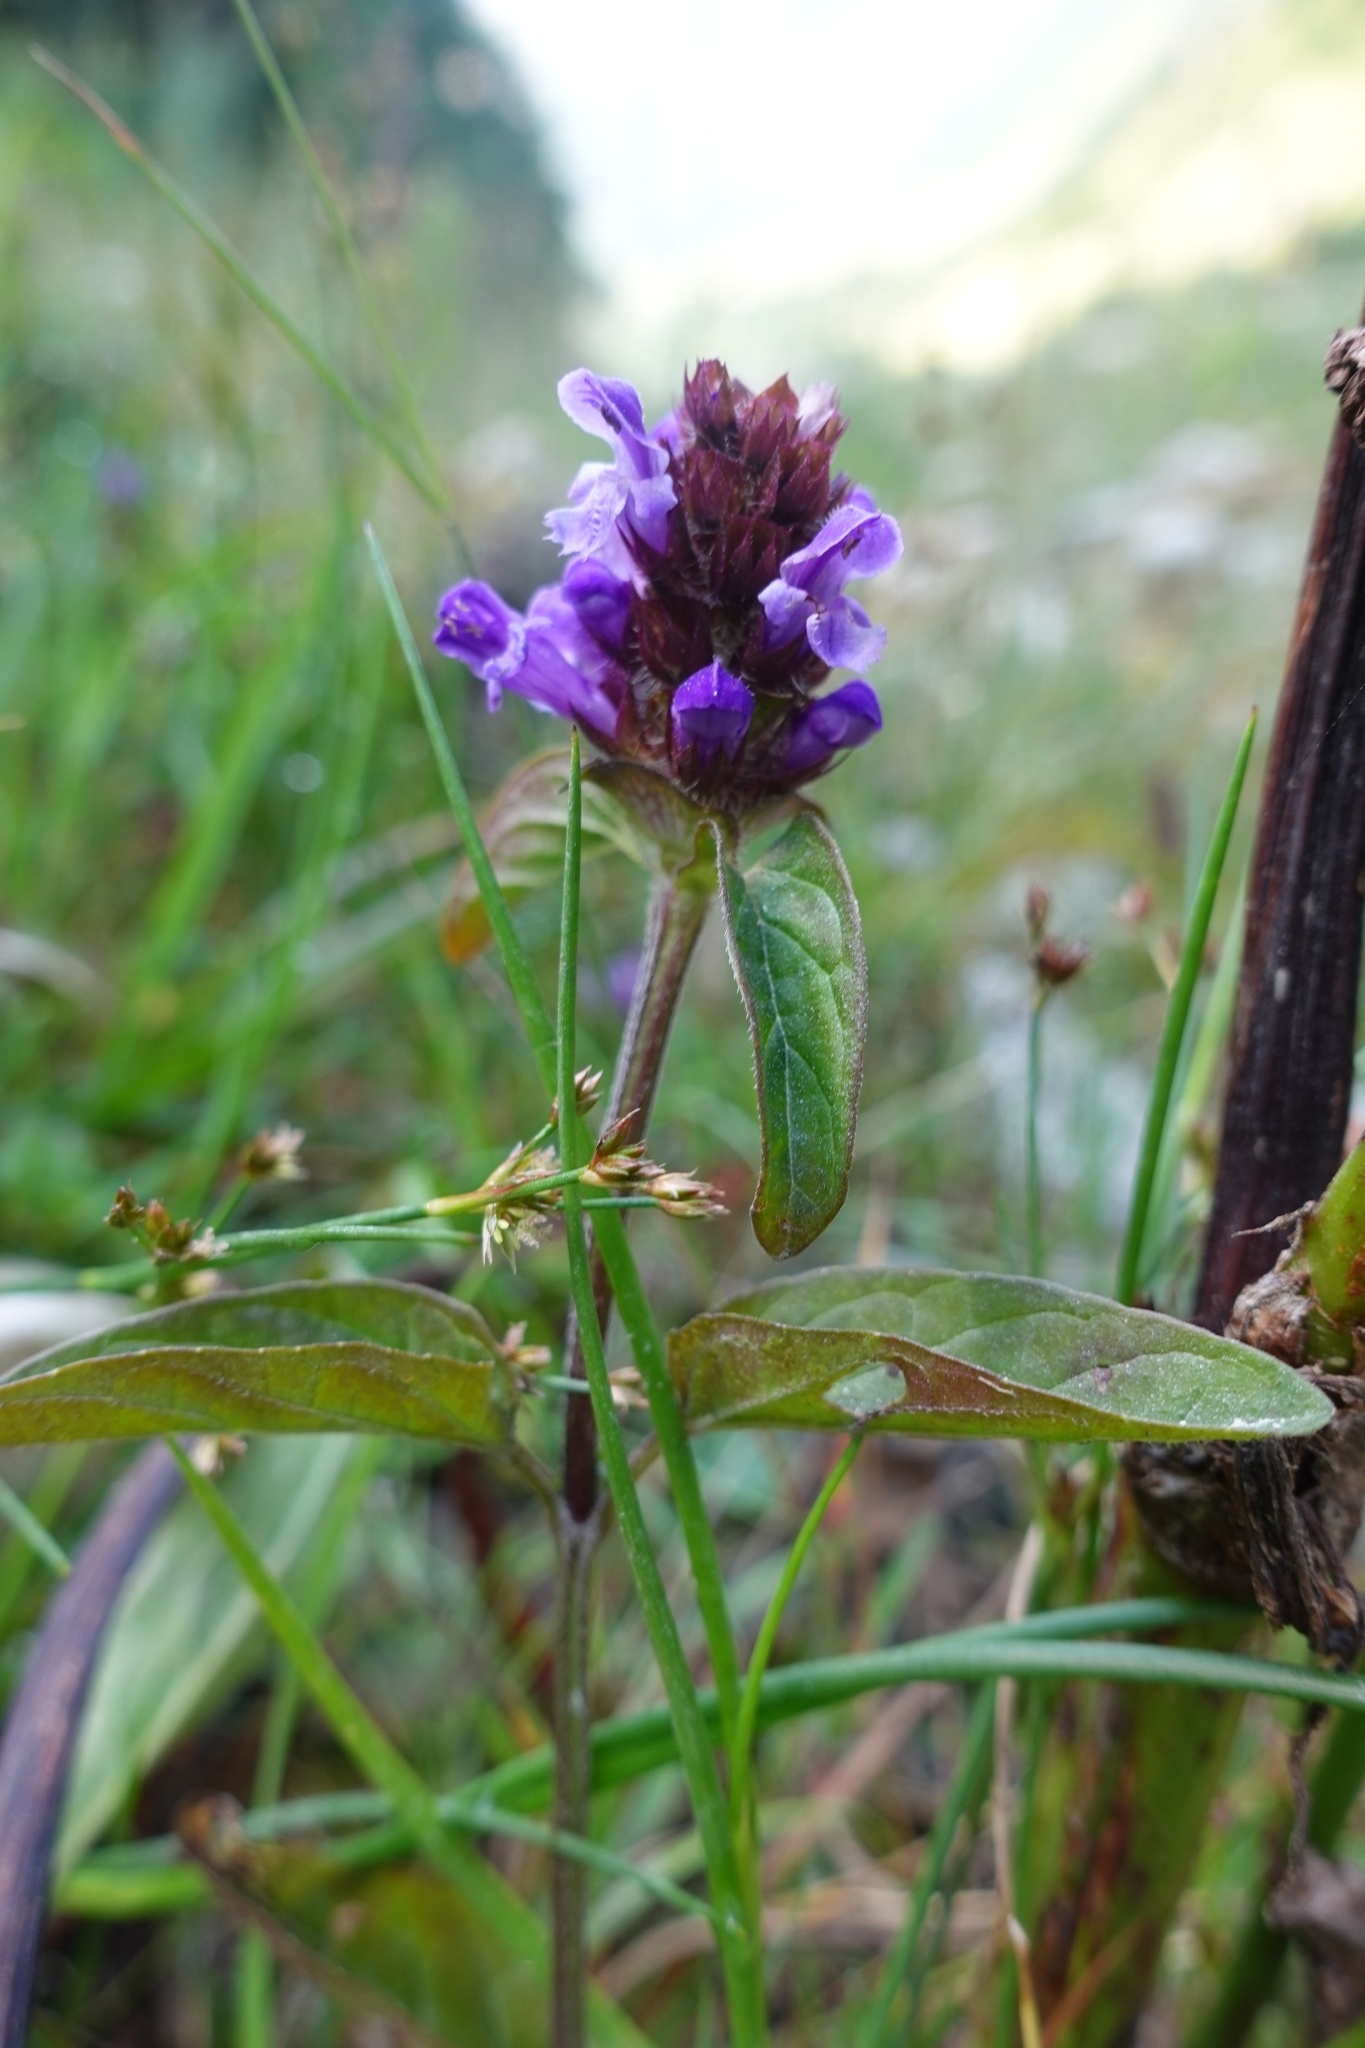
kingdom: Plantae
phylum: Tracheophyta
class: Magnoliopsida
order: Lamiales
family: Lamiaceae
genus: Prunella
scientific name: Prunella vulgaris
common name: Heal-all
